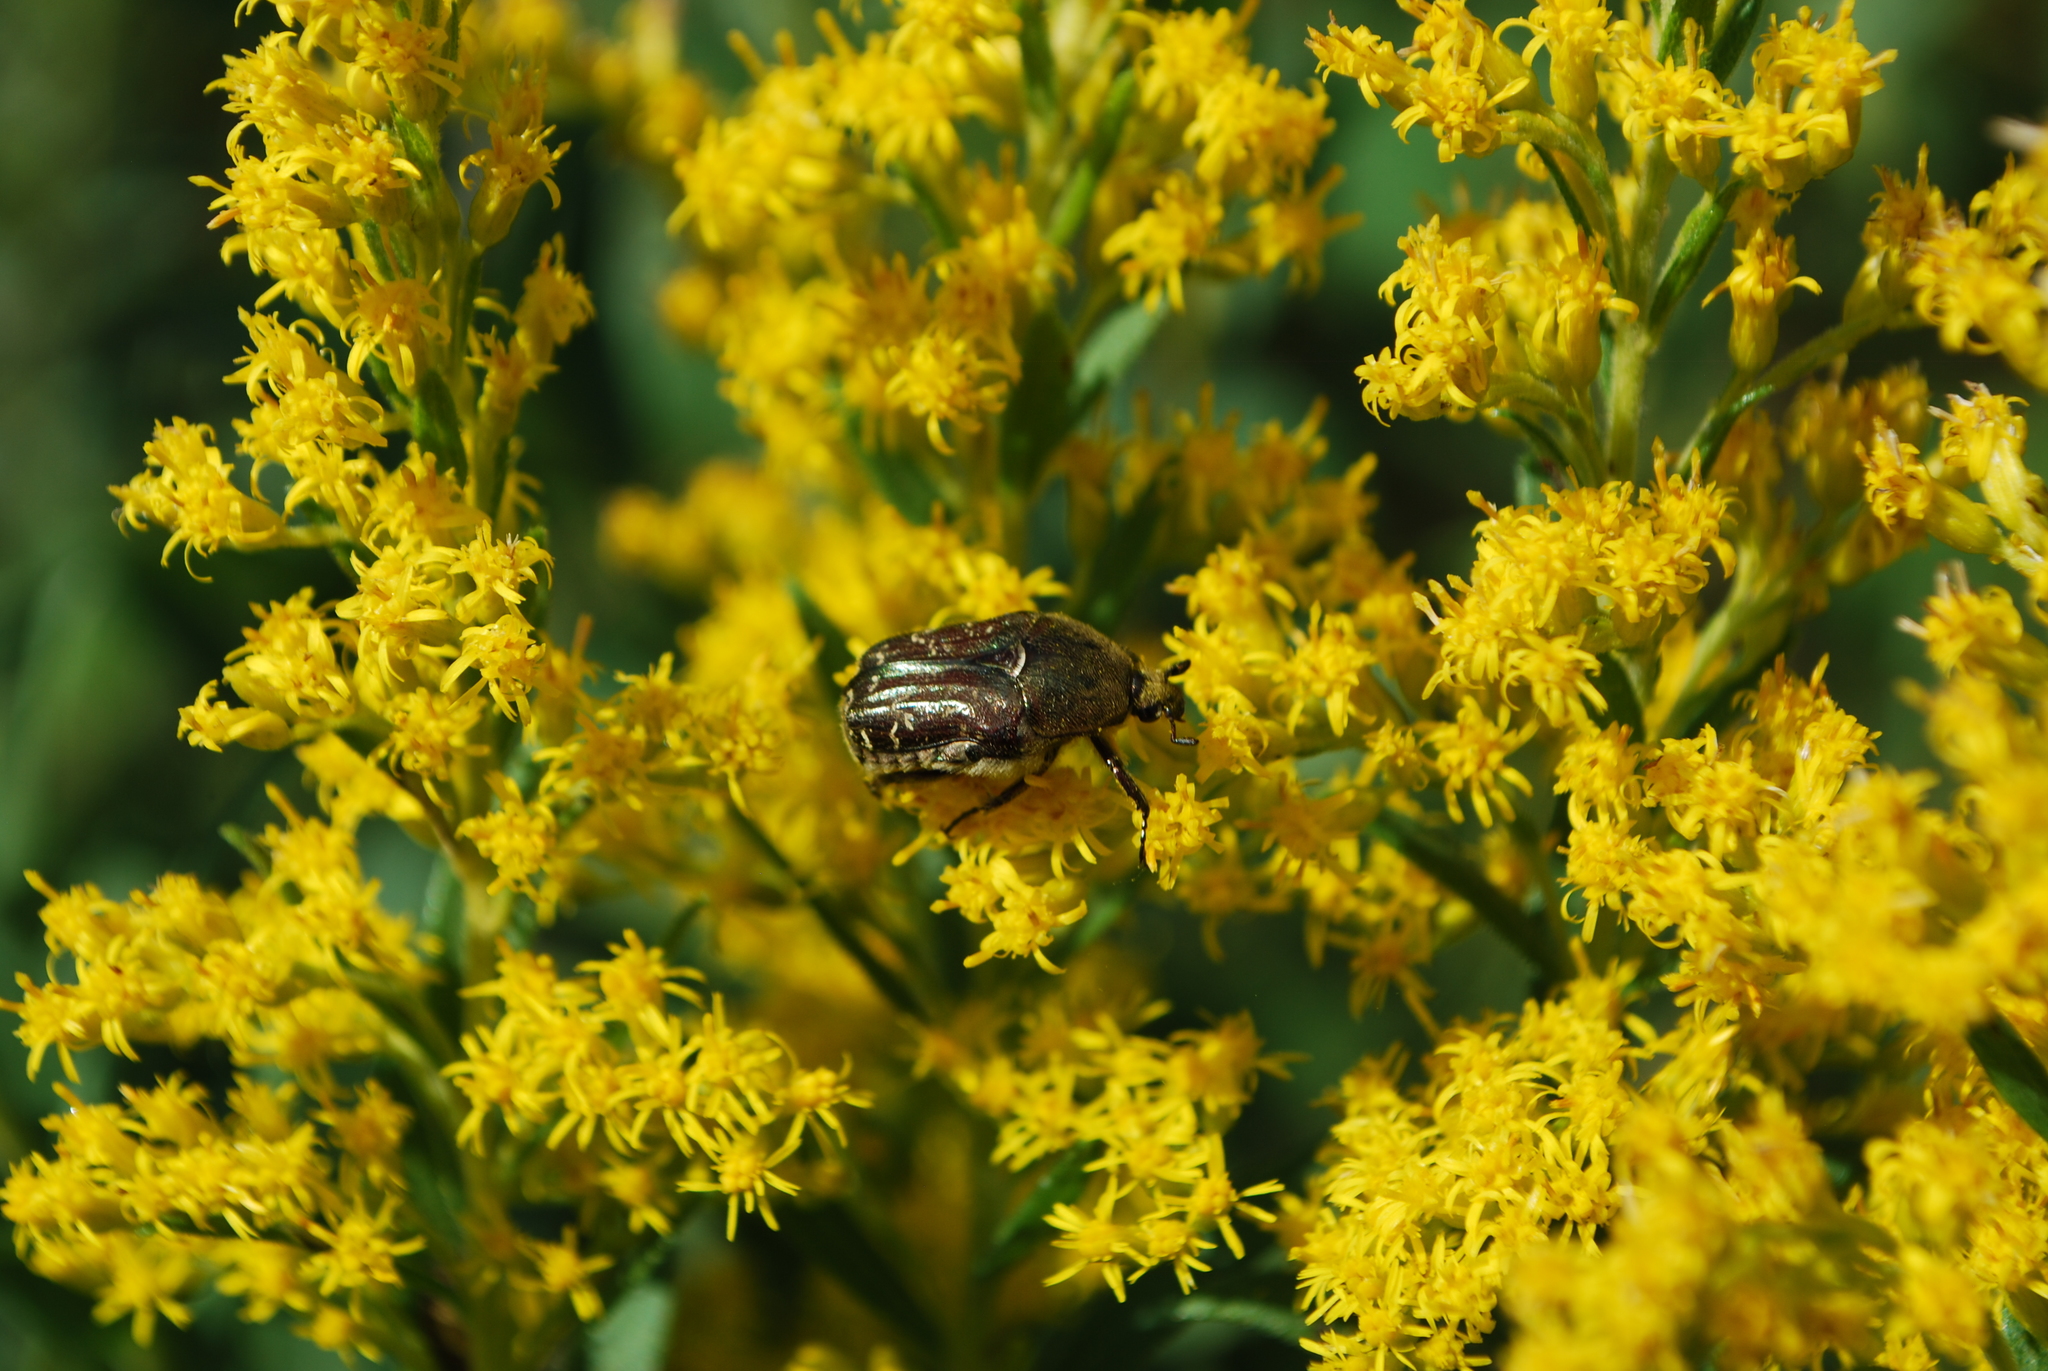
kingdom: Animalia
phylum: Arthropoda
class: Insecta
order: Coleoptera
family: Scarabaeidae
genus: Euphoria
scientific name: Euphoria sepulcralis
